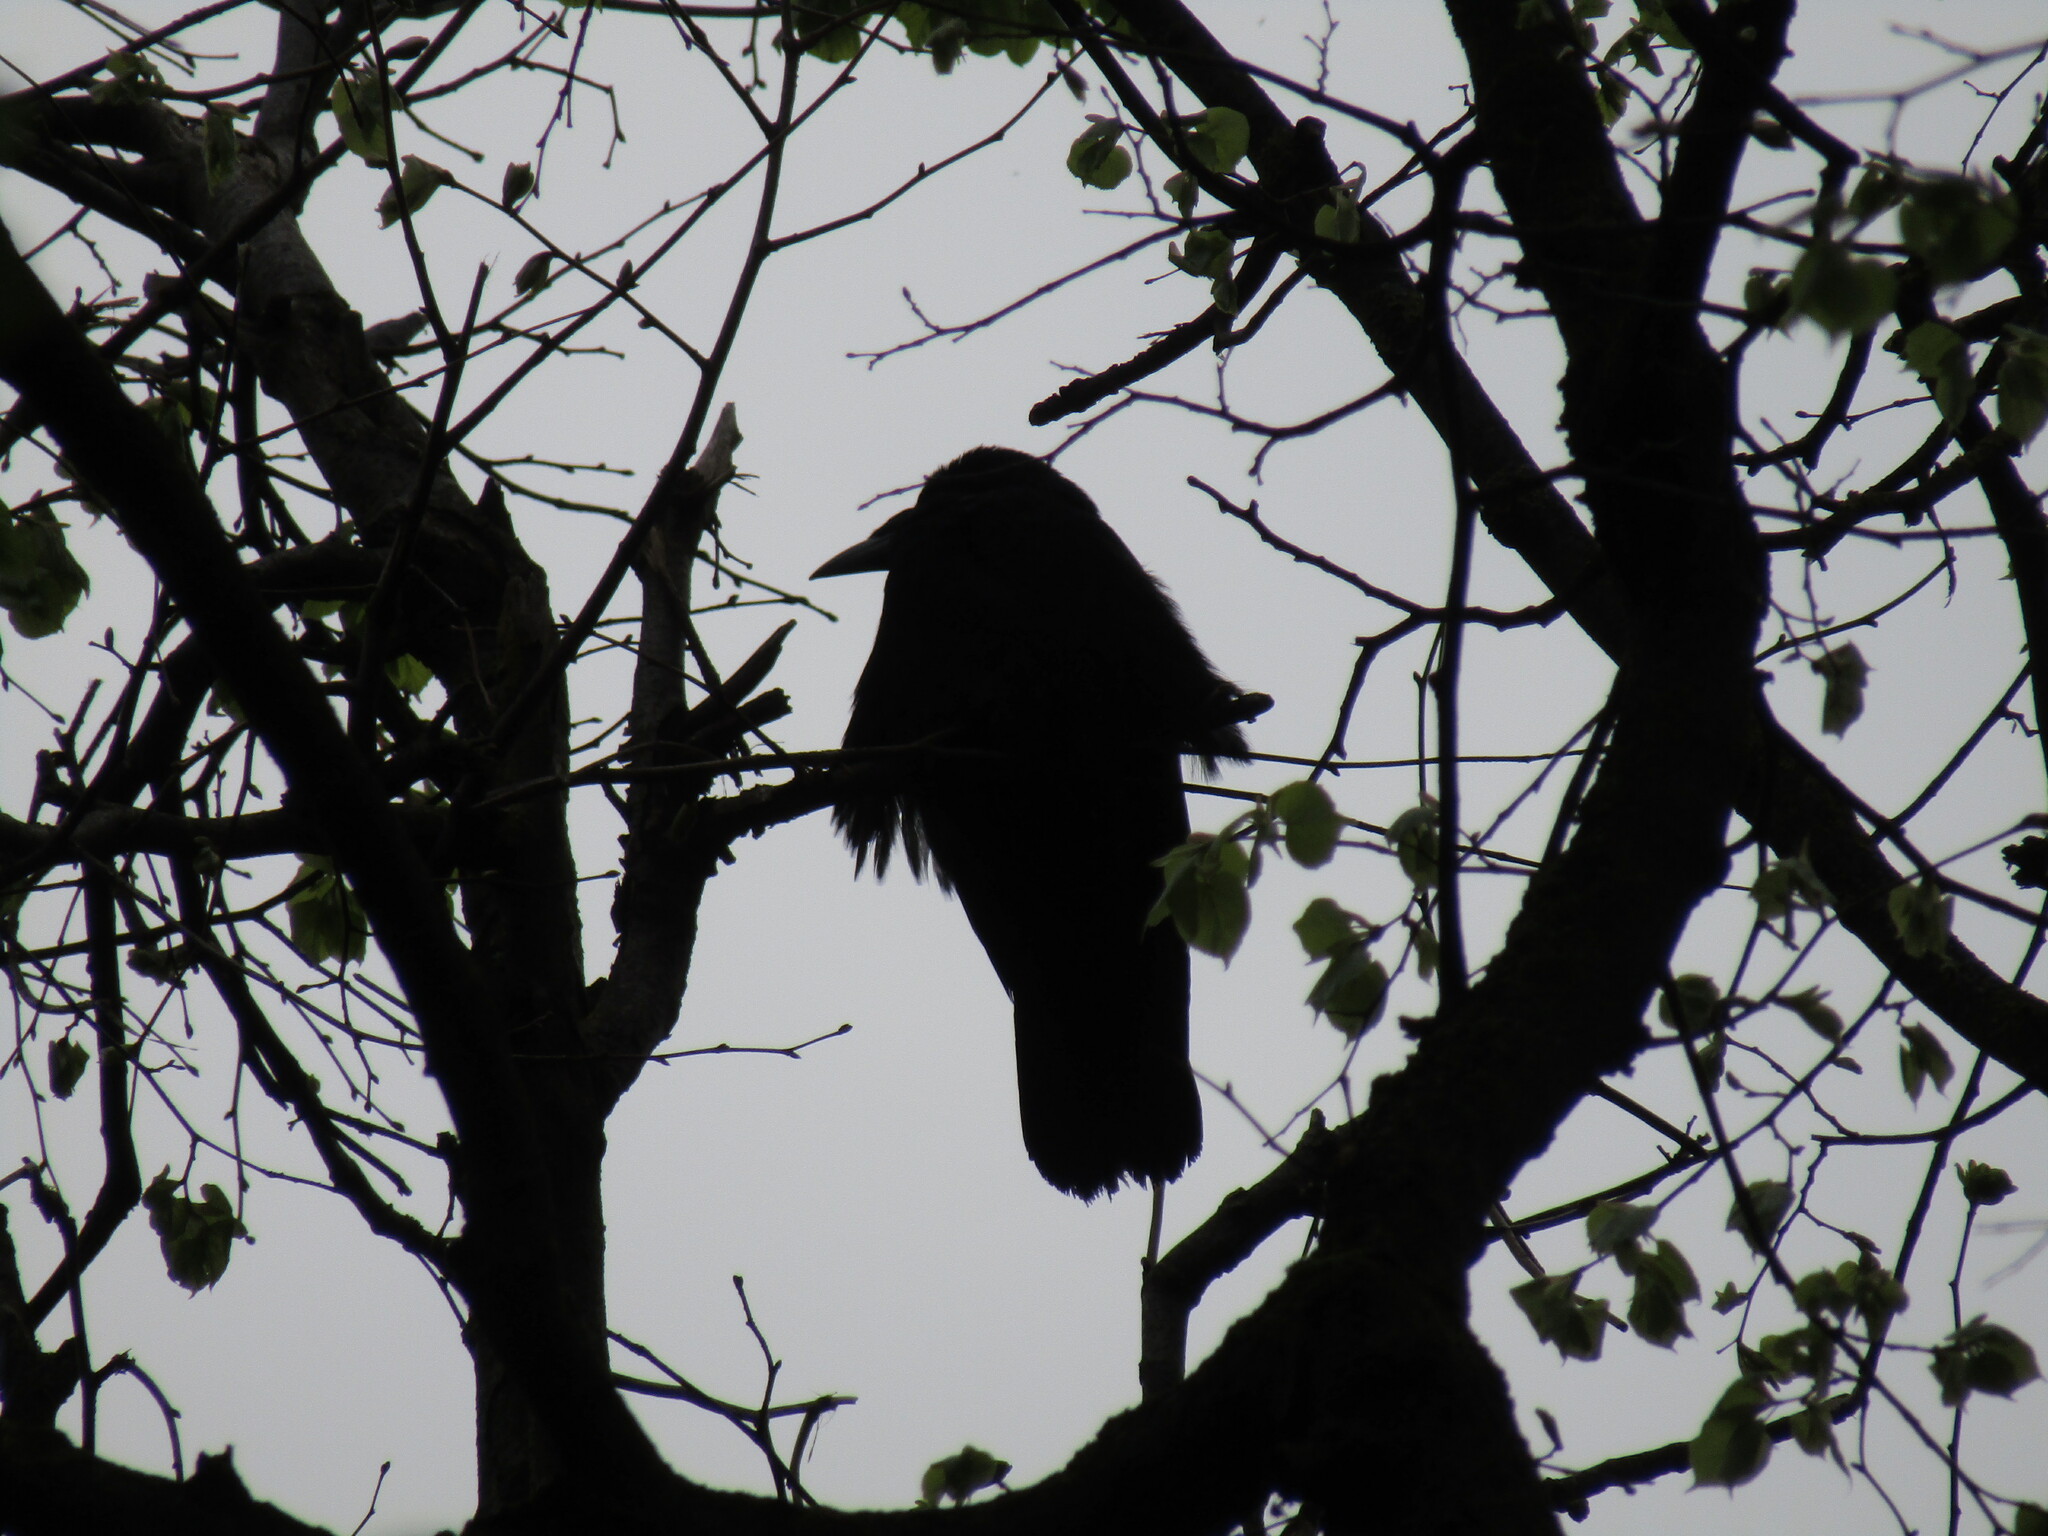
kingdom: Animalia
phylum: Chordata
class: Aves
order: Passeriformes
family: Corvidae
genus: Corvus
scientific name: Corvus frugilegus
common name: Rook
